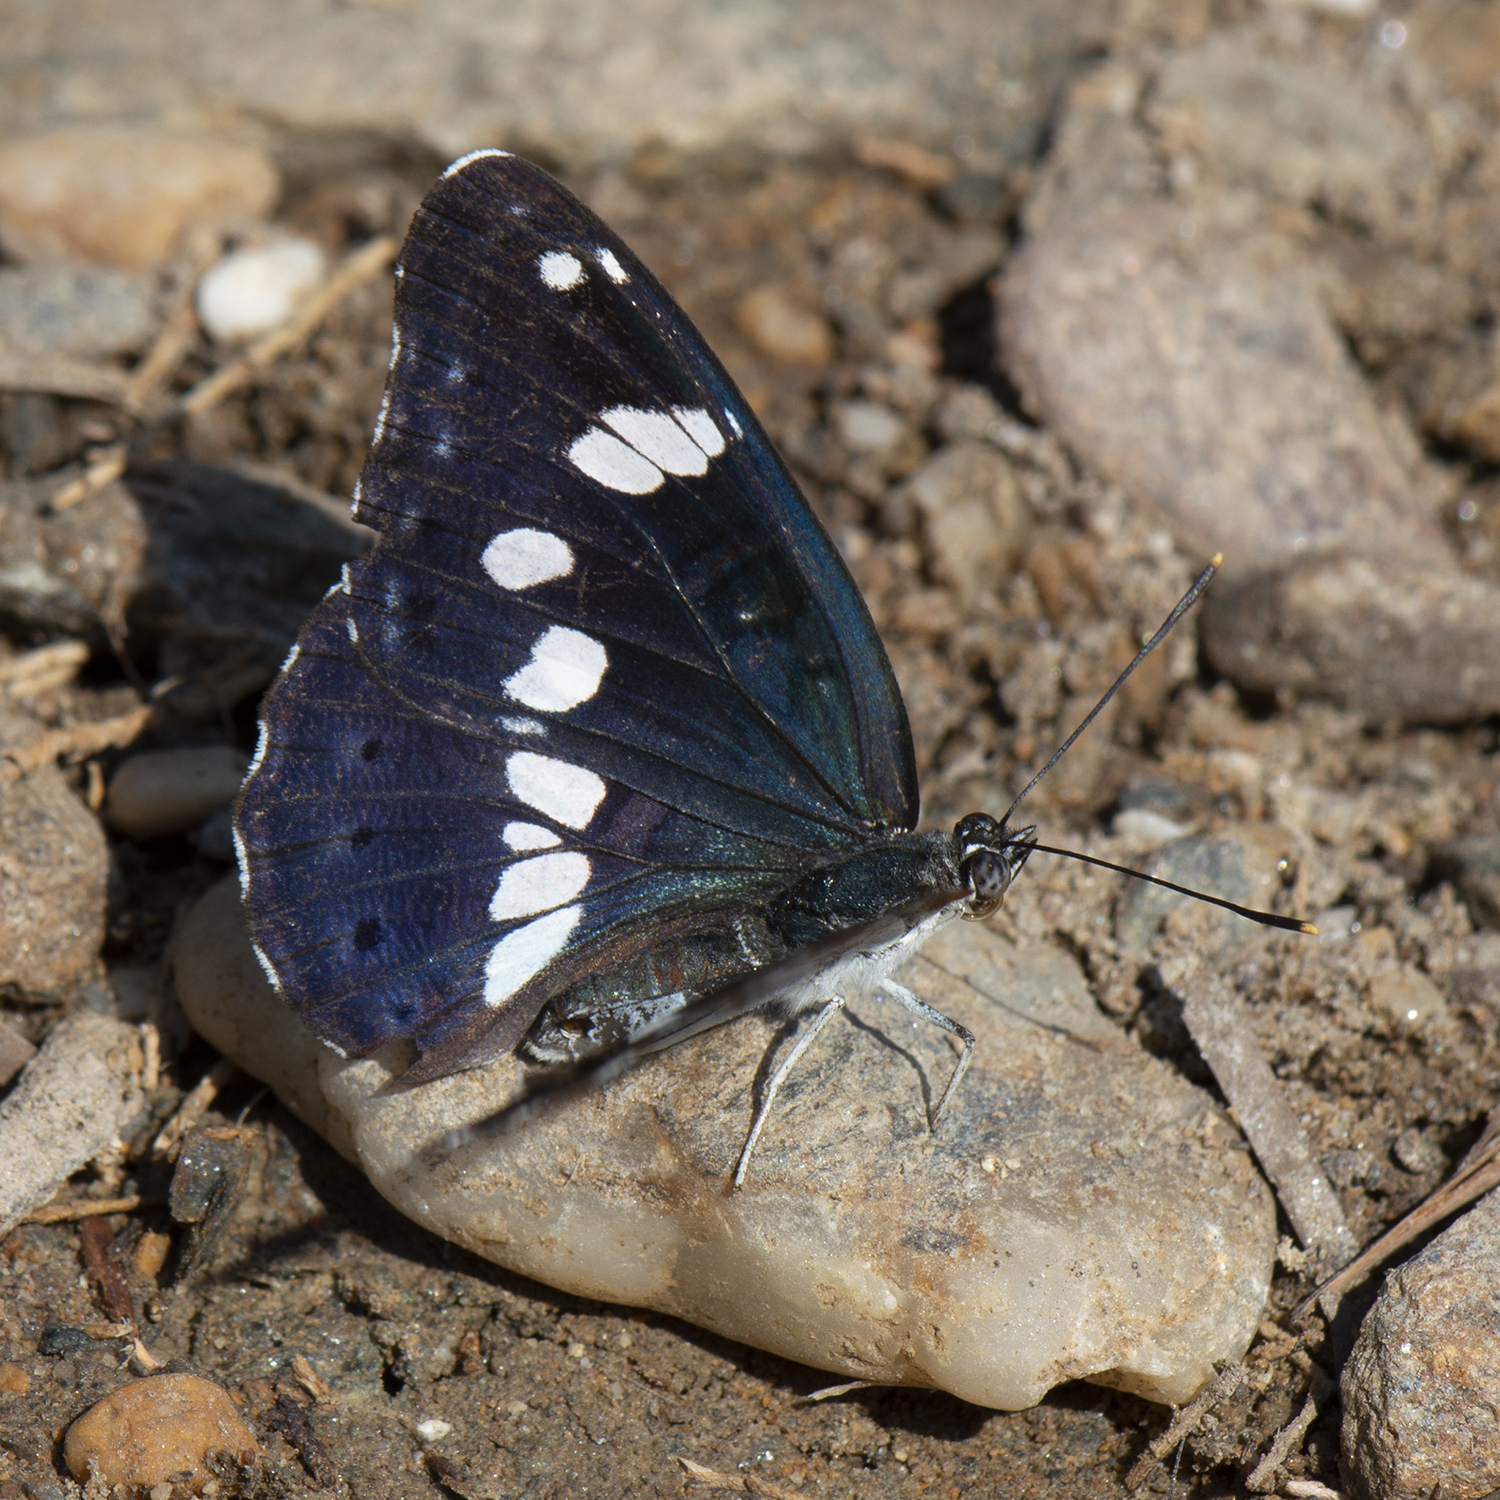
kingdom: Animalia
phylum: Arthropoda
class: Insecta
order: Lepidoptera
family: Nymphalidae
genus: Limenitis
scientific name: Limenitis reducta
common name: Southern white admiral
